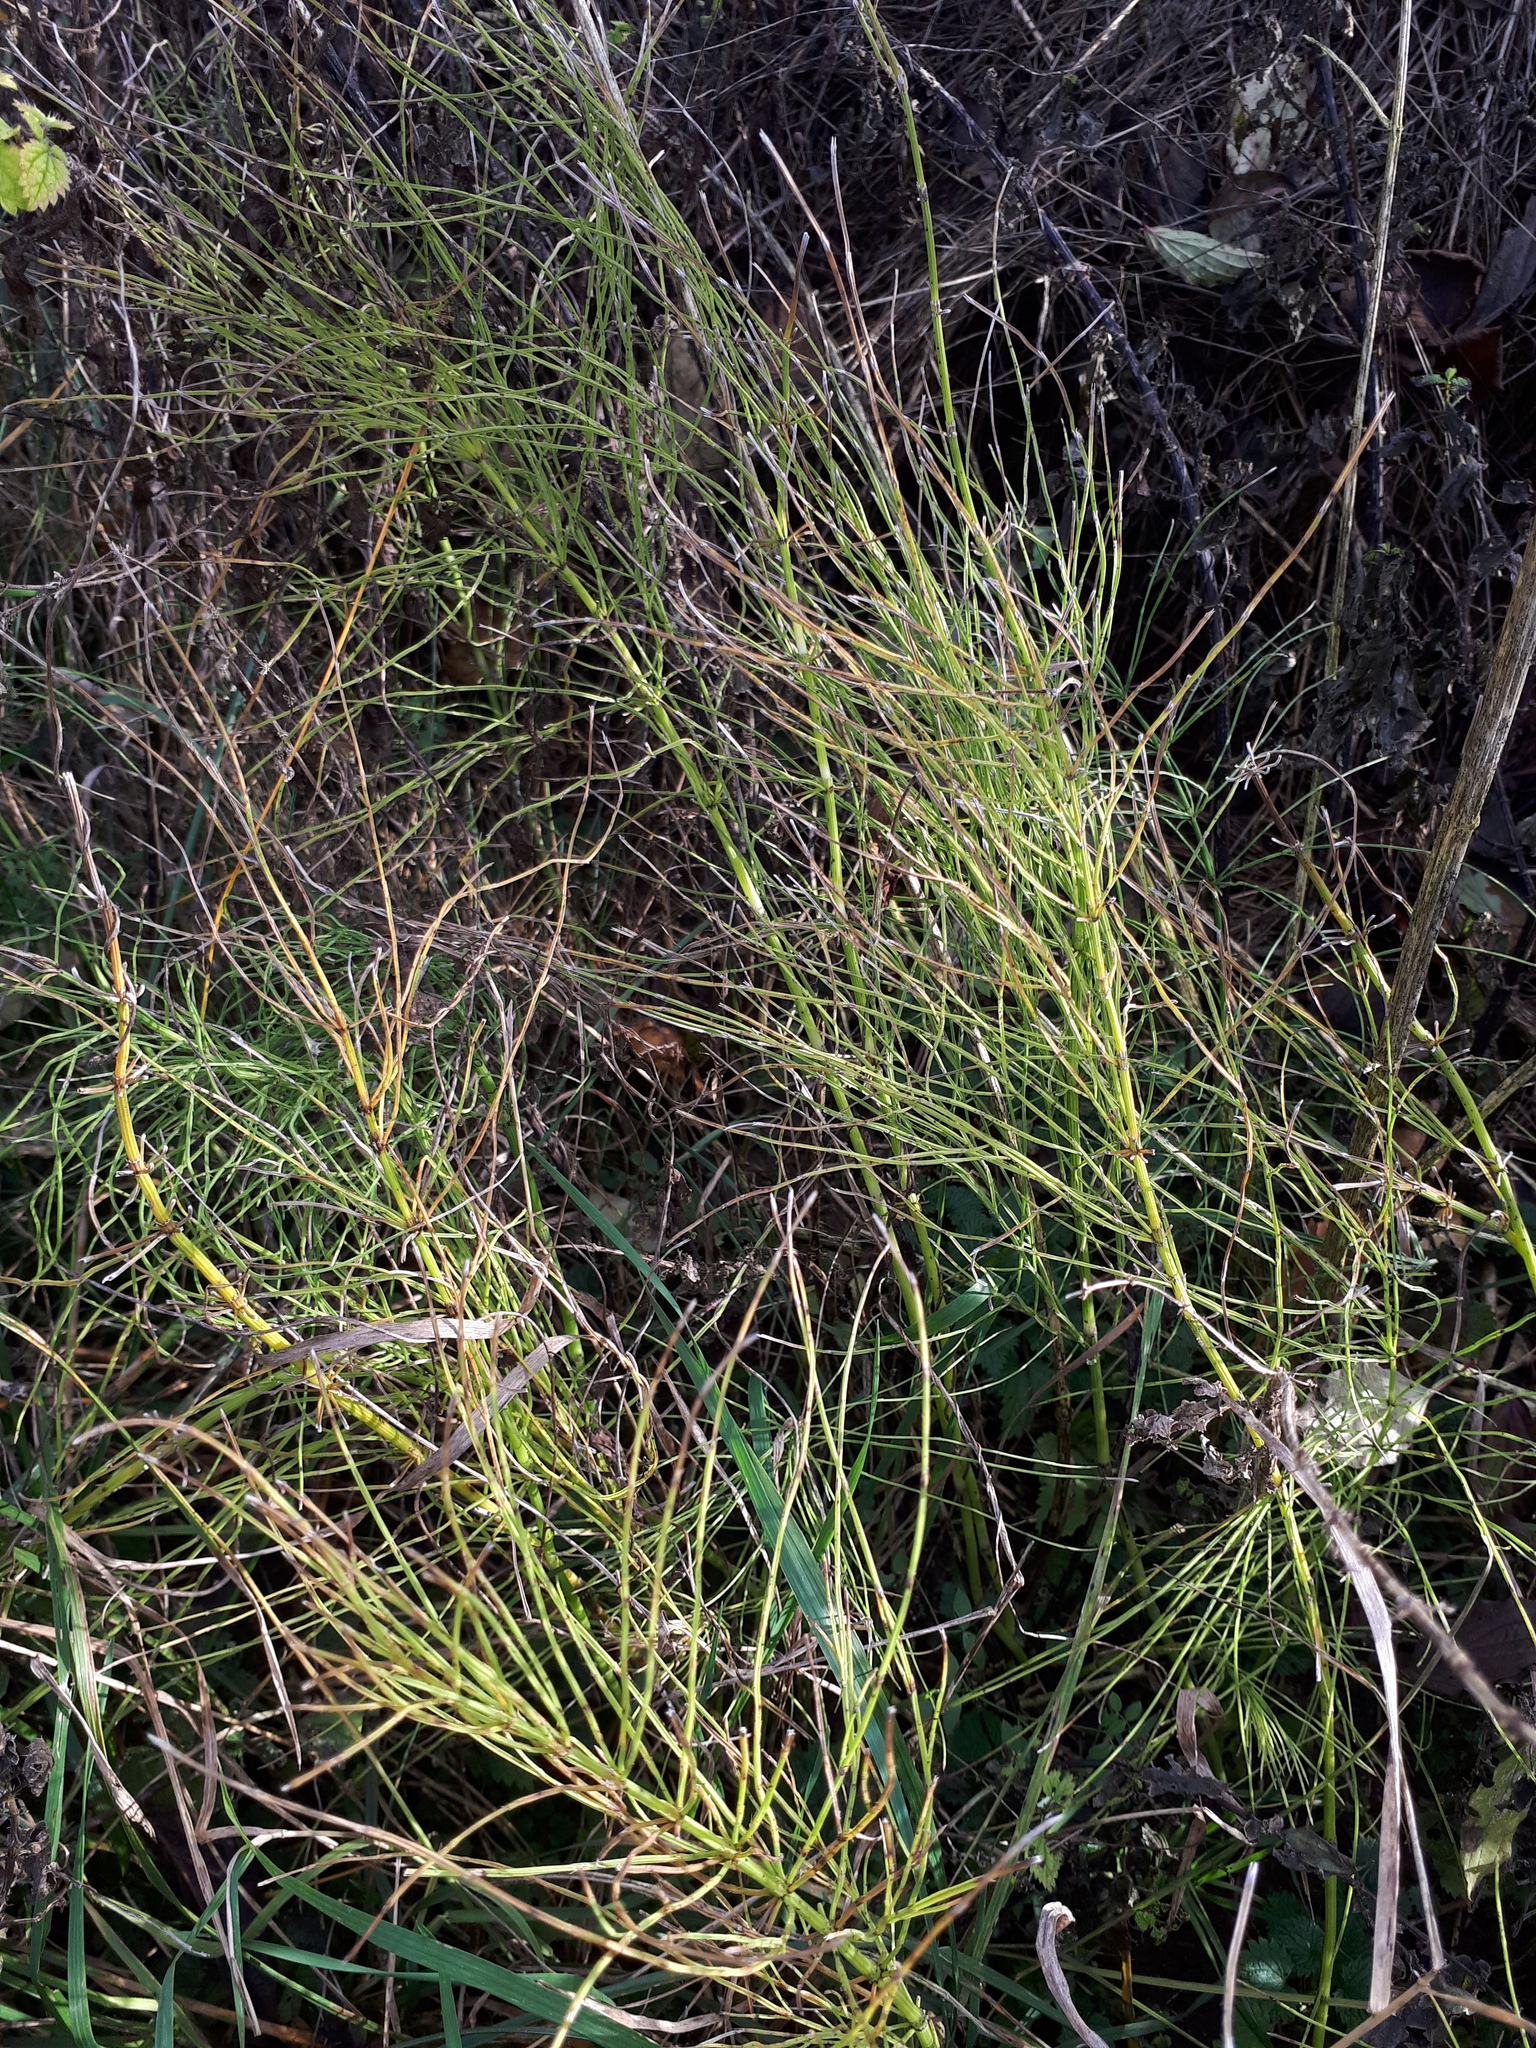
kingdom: Plantae
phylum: Tracheophyta
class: Polypodiopsida
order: Equisetales
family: Equisetaceae
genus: Equisetum
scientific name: Equisetum arvense
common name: Field horsetail
